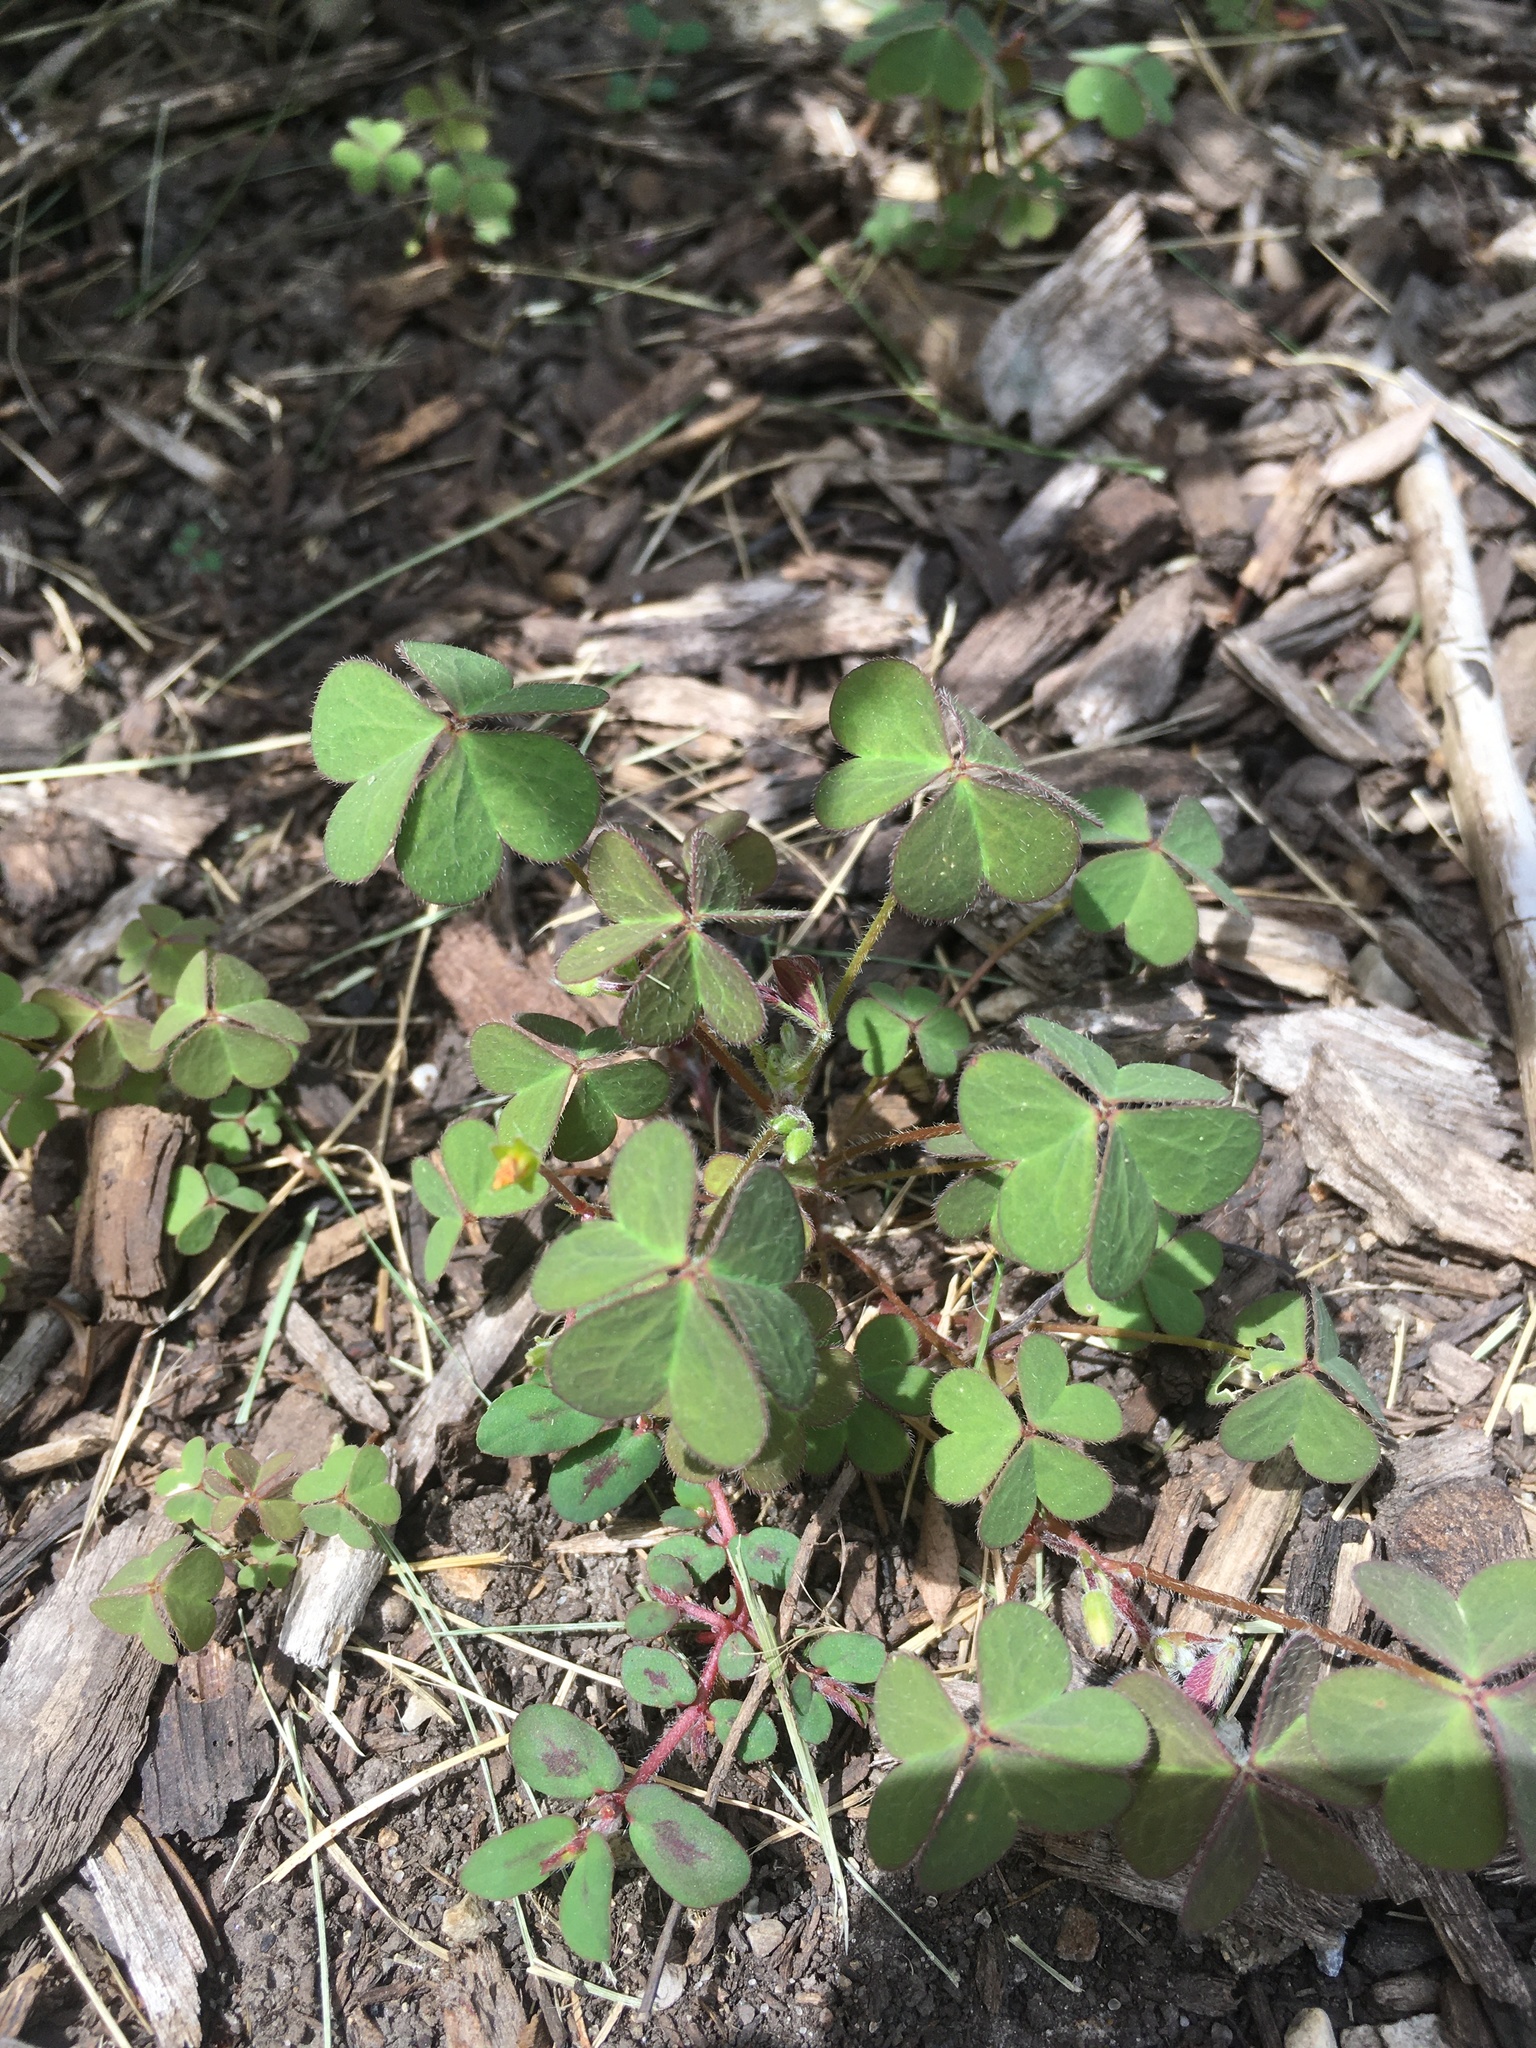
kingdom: Plantae
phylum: Tracheophyta
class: Magnoliopsida
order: Oxalidales
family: Oxalidaceae
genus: Oxalis
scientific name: Oxalis corniculata
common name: Procumbent yellow-sorrel
